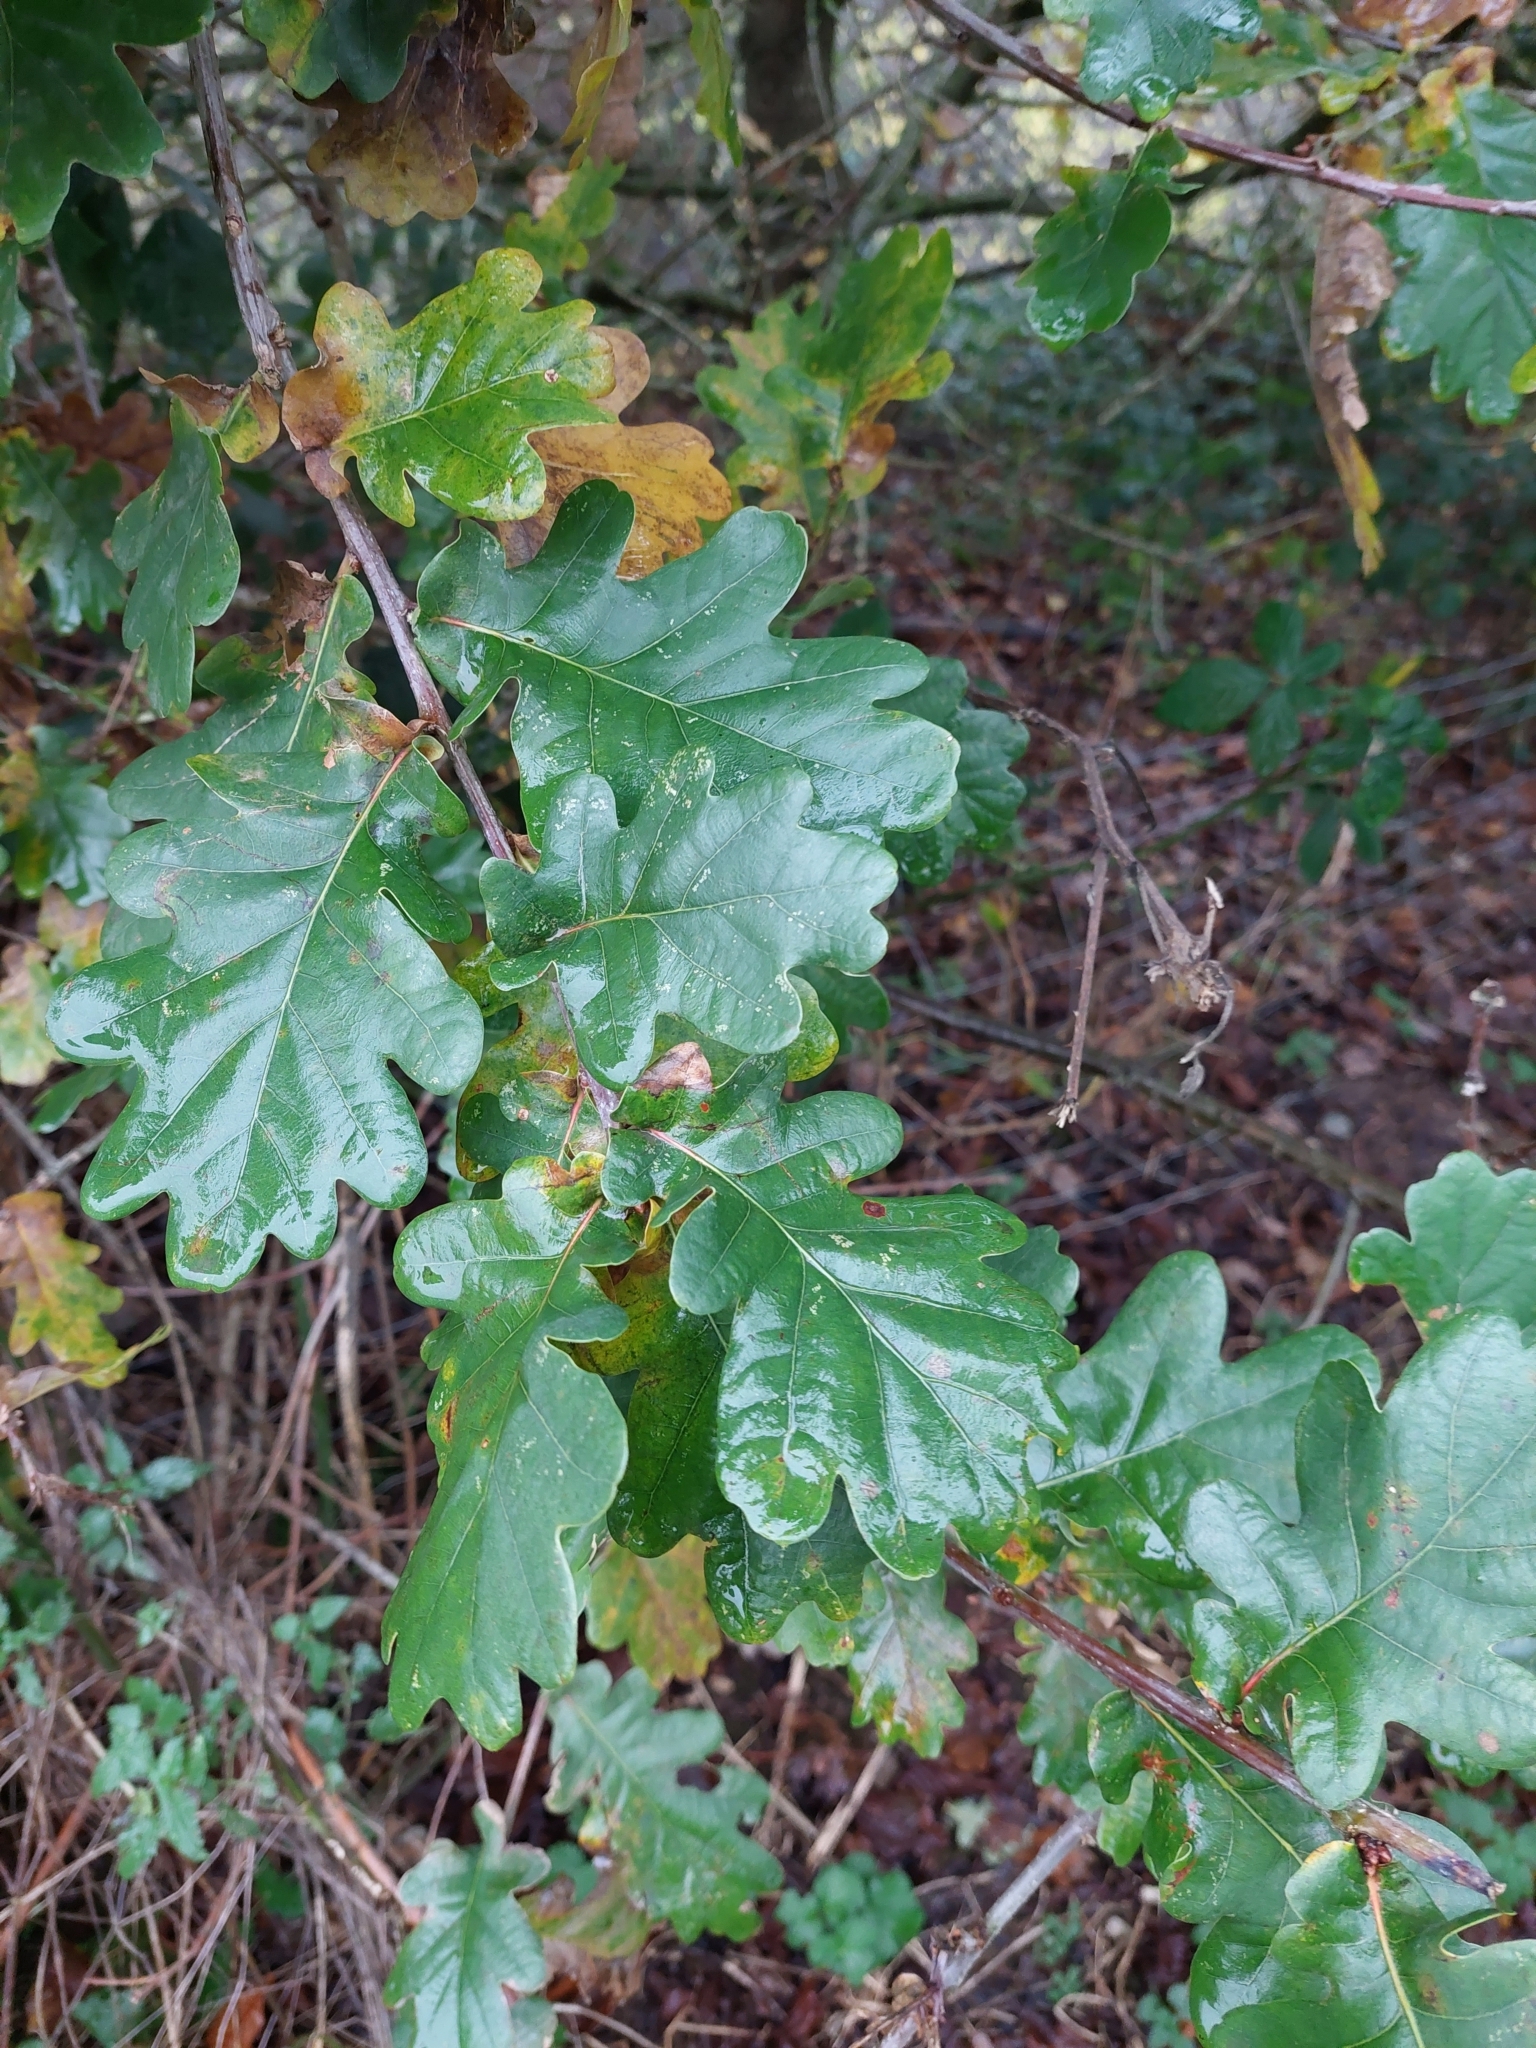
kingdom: Plantae
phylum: Tracheophyta
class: Magnoliopsida
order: Fagales
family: Fagaceae
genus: Quercus
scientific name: Quercus robur
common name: Pedunculate oak
